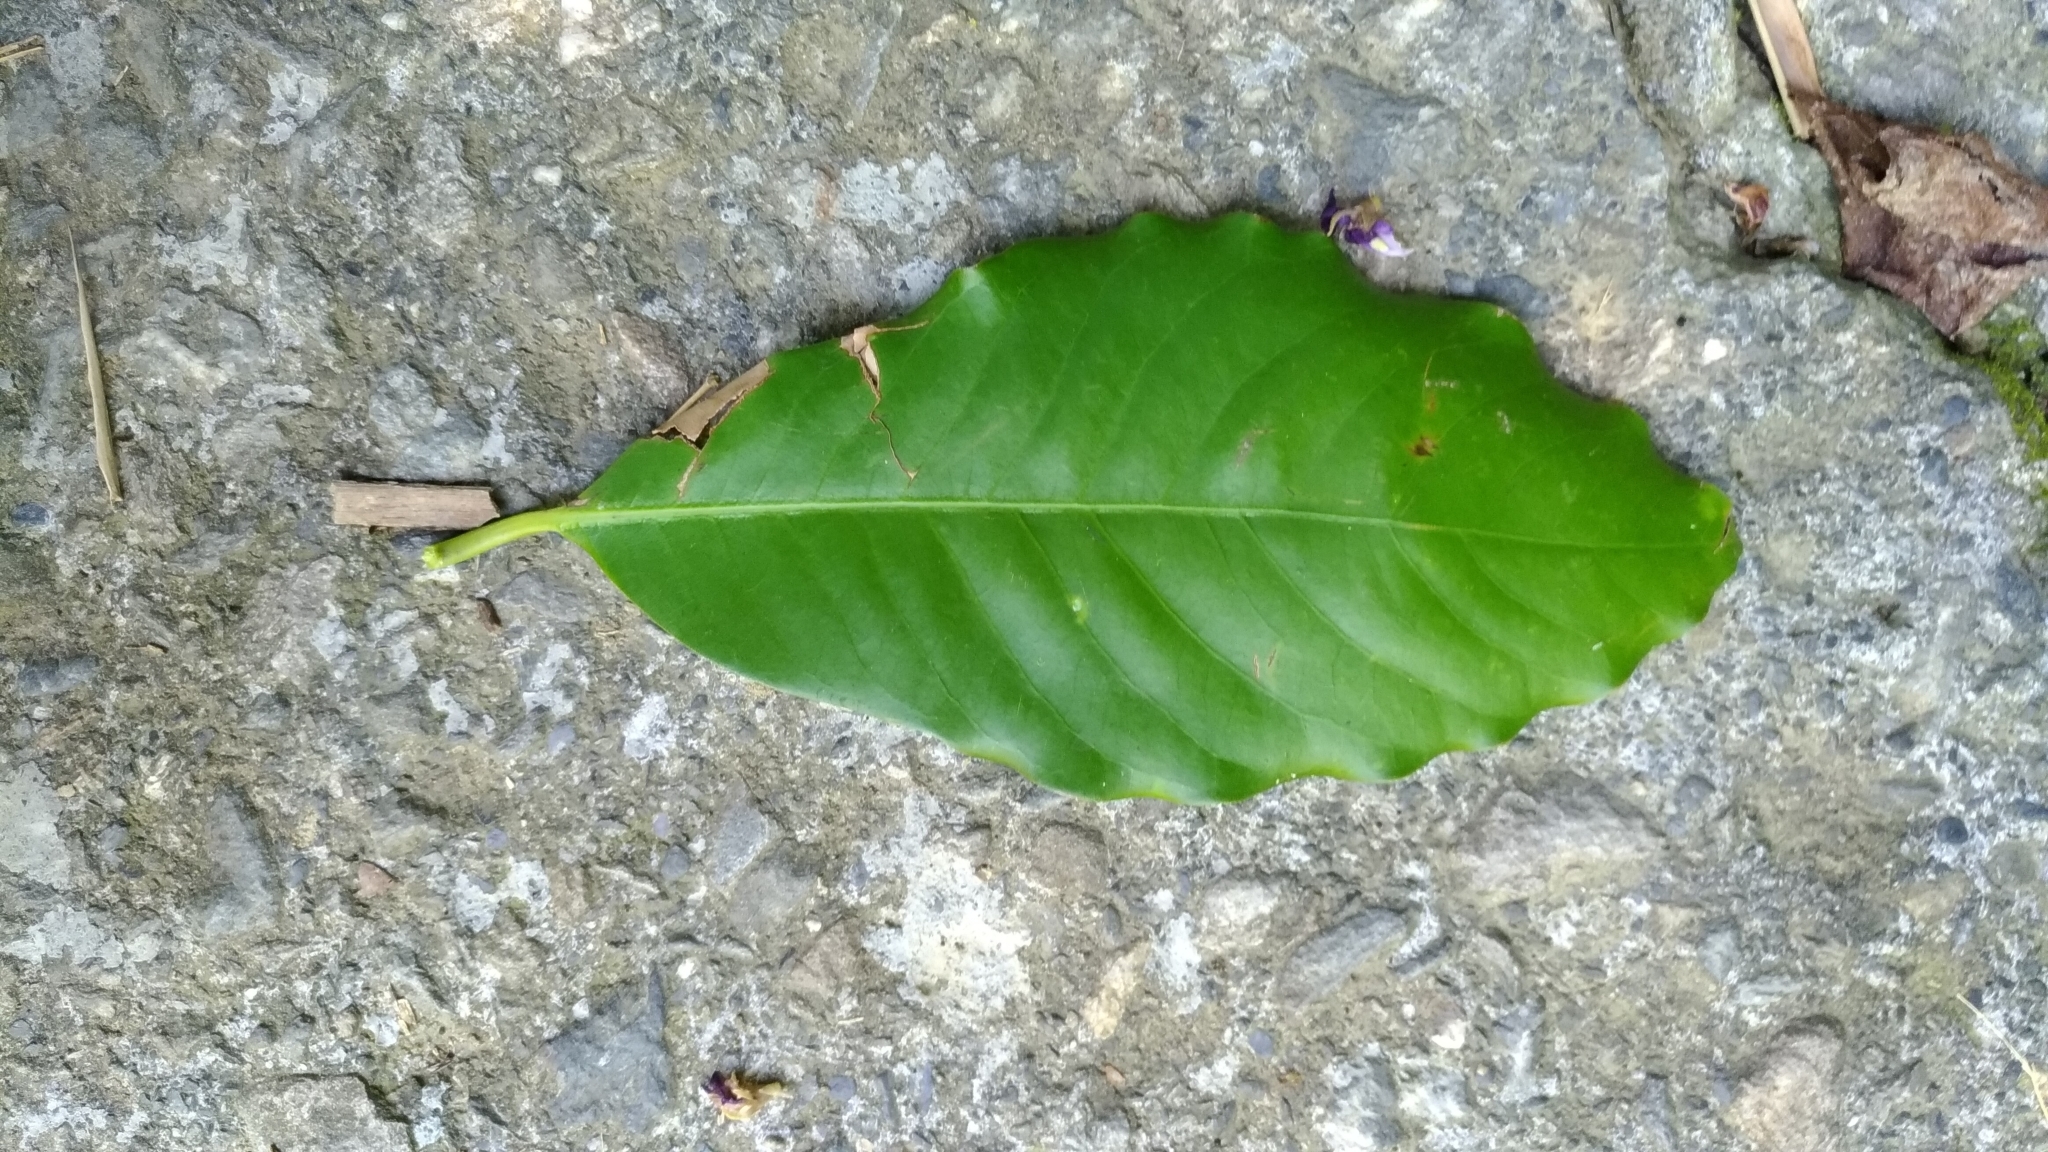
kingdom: Plantae
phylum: Tracheophyta
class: Magnoliopsida
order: Laurales
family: Lauraceae
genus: Machilus
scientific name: Machilus japonica
